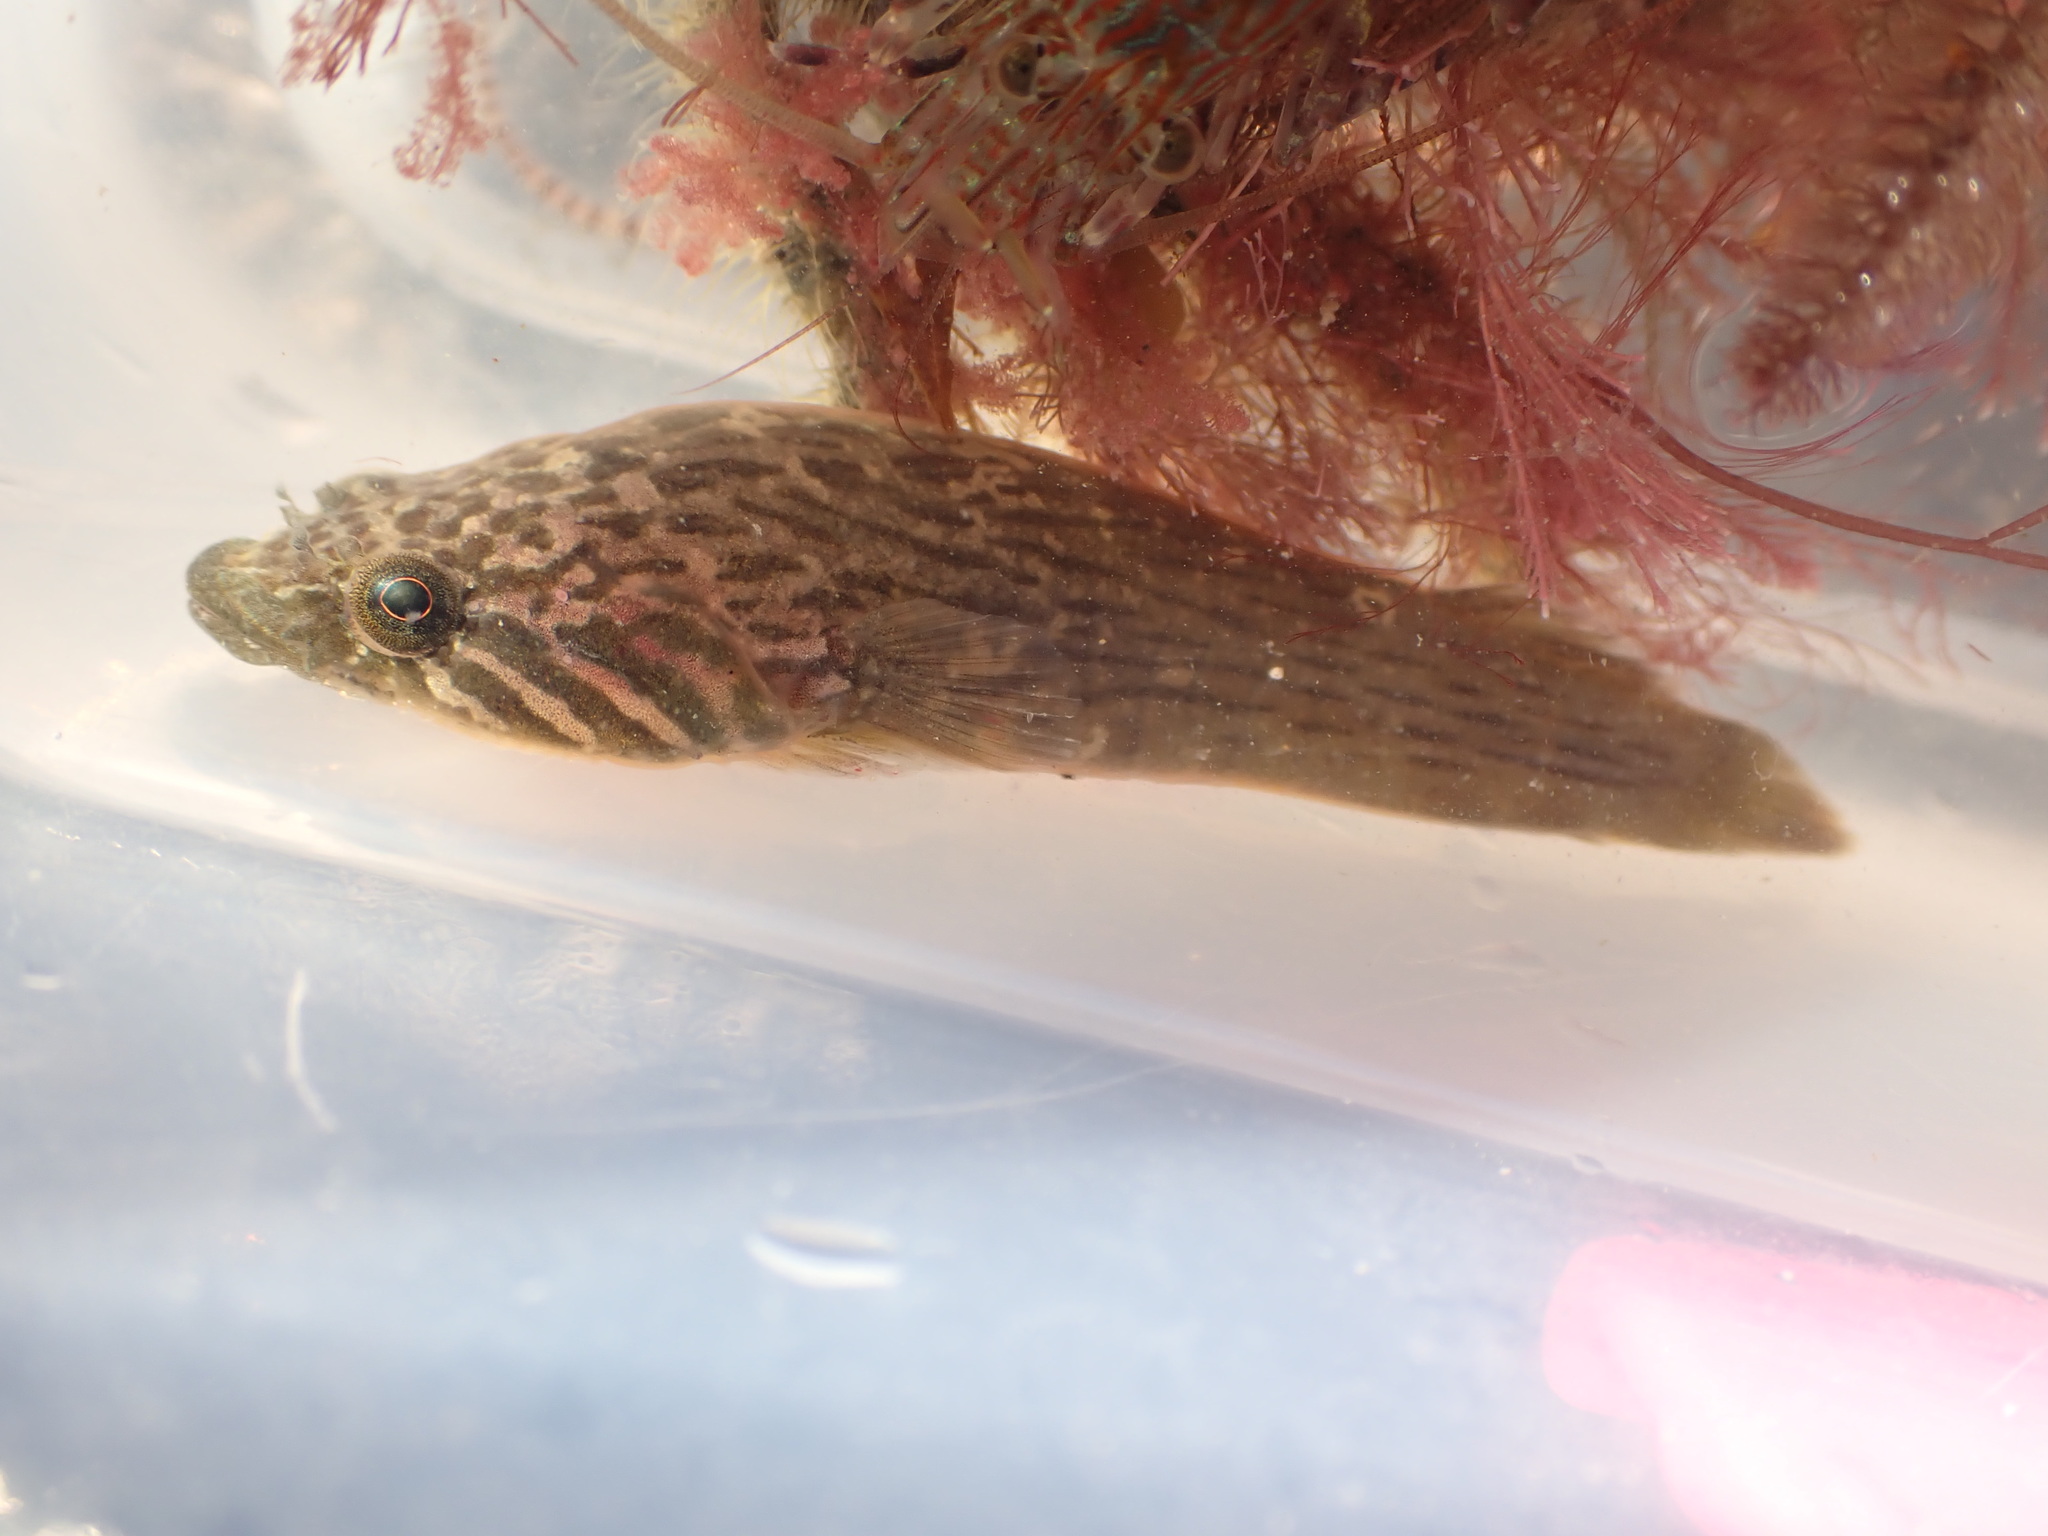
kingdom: Animalia
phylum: Chordata
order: Gobiesociformes
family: Gobiesocidae
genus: Trachelochismus
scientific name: Trachelochismus pinnulatus
